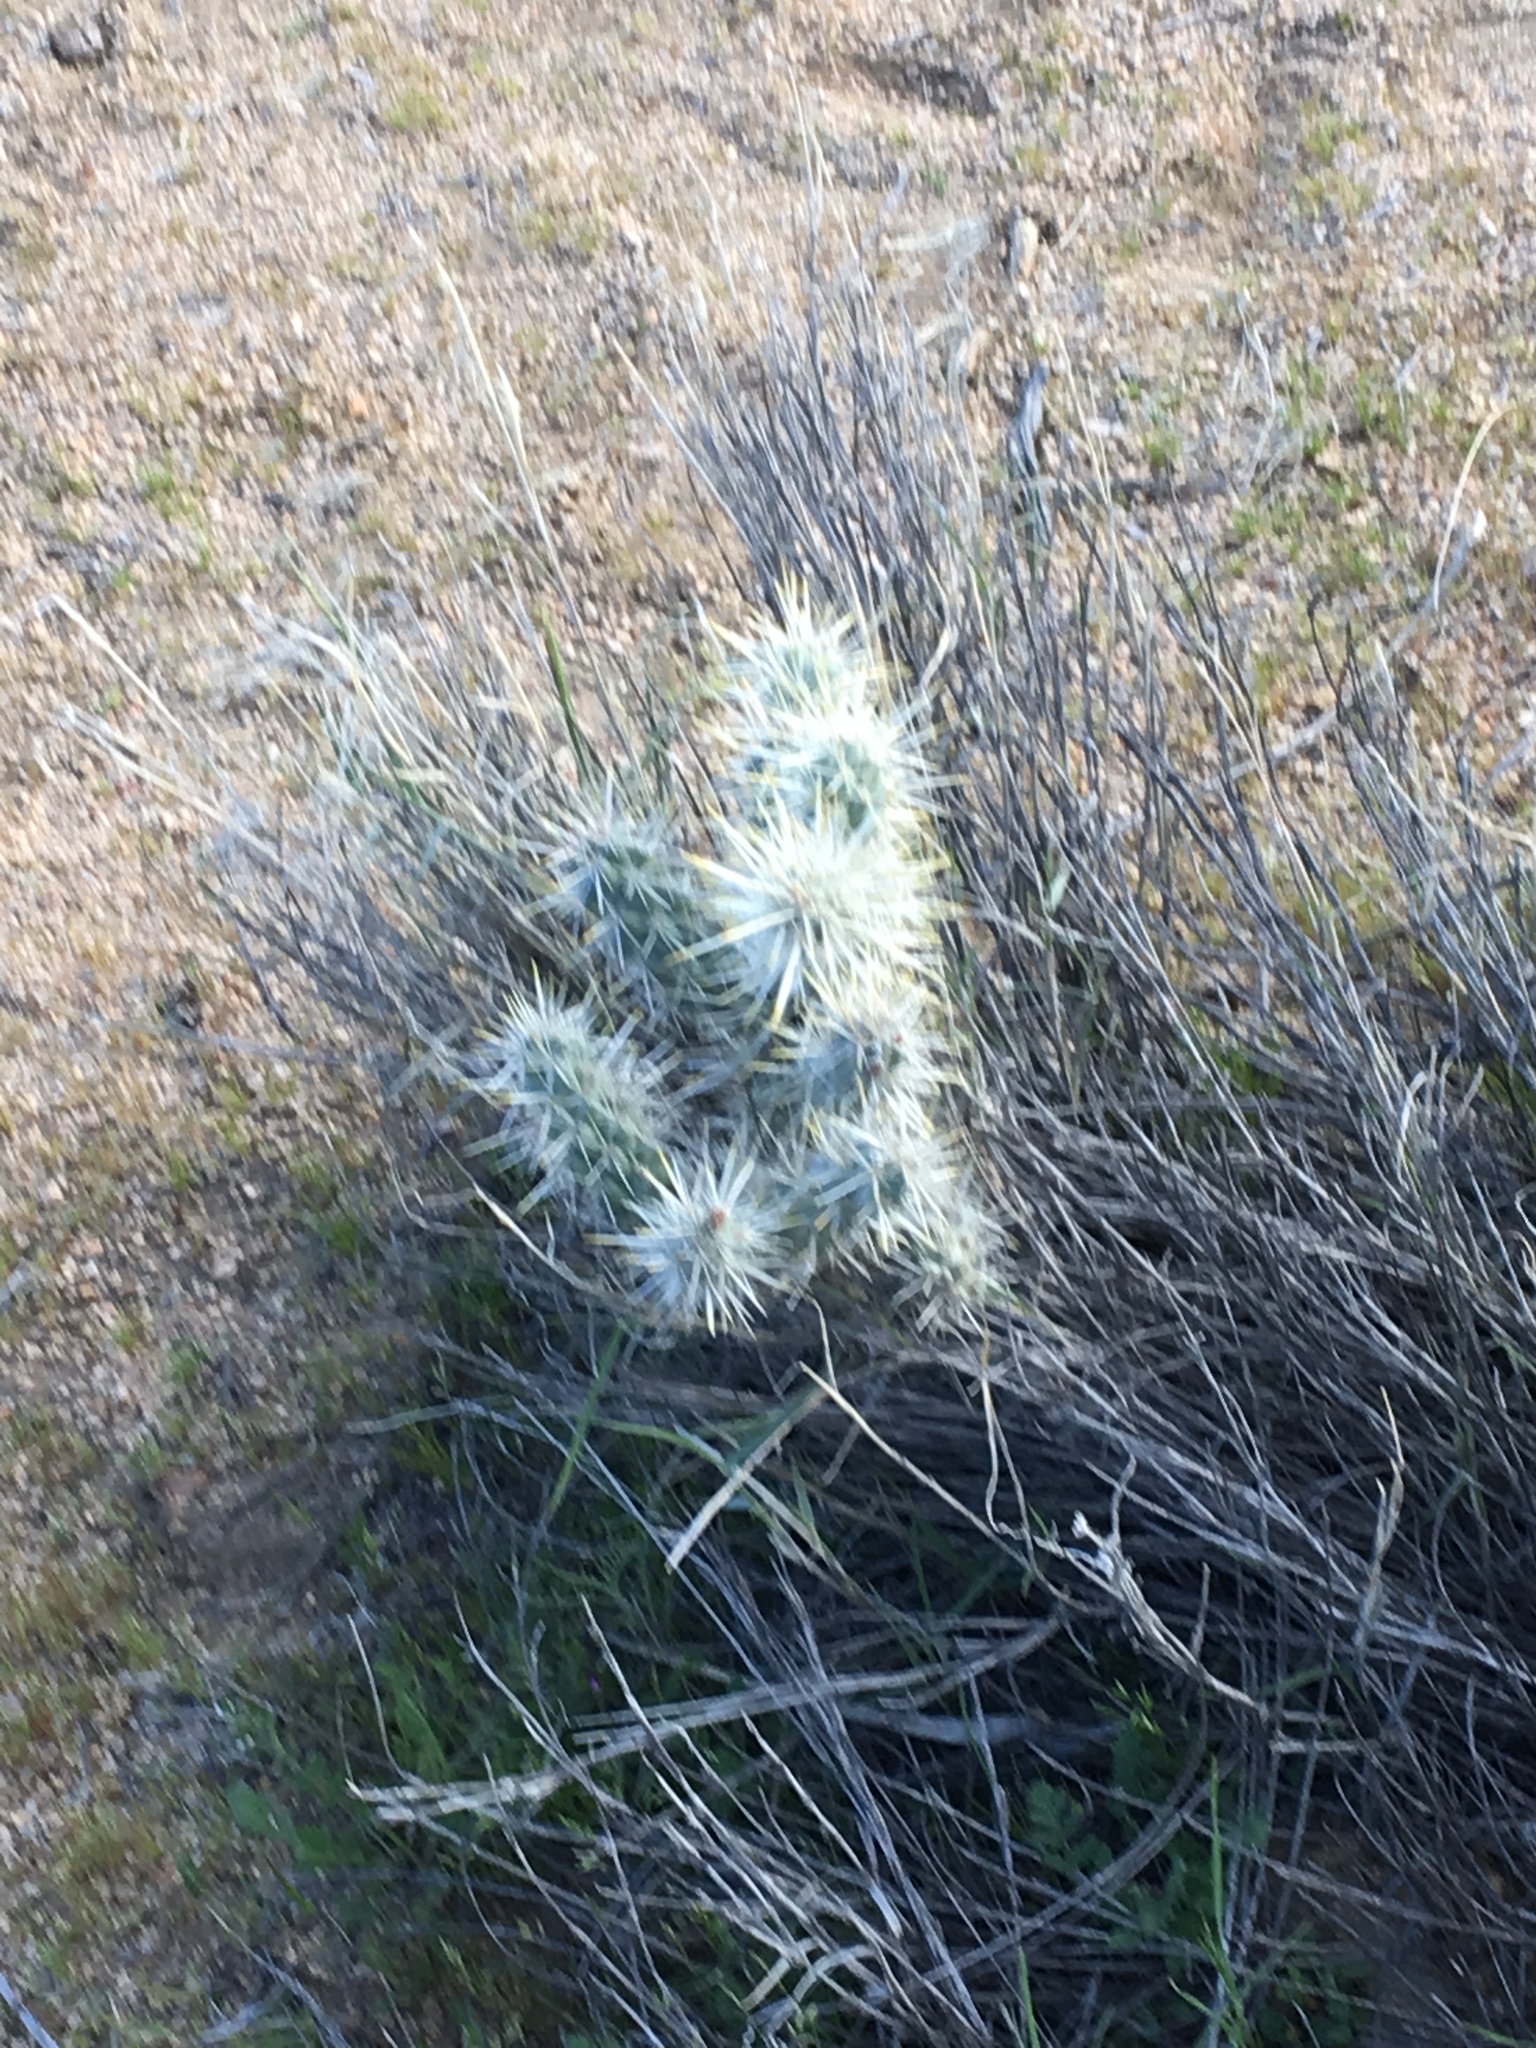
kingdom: Plantae
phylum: Tracheophyta
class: Magnoliopsida
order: Caryophyllales
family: Cactaceae
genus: Cylindropuntia
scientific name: Cylindropuntia echinocarpa
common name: Ground cholla
